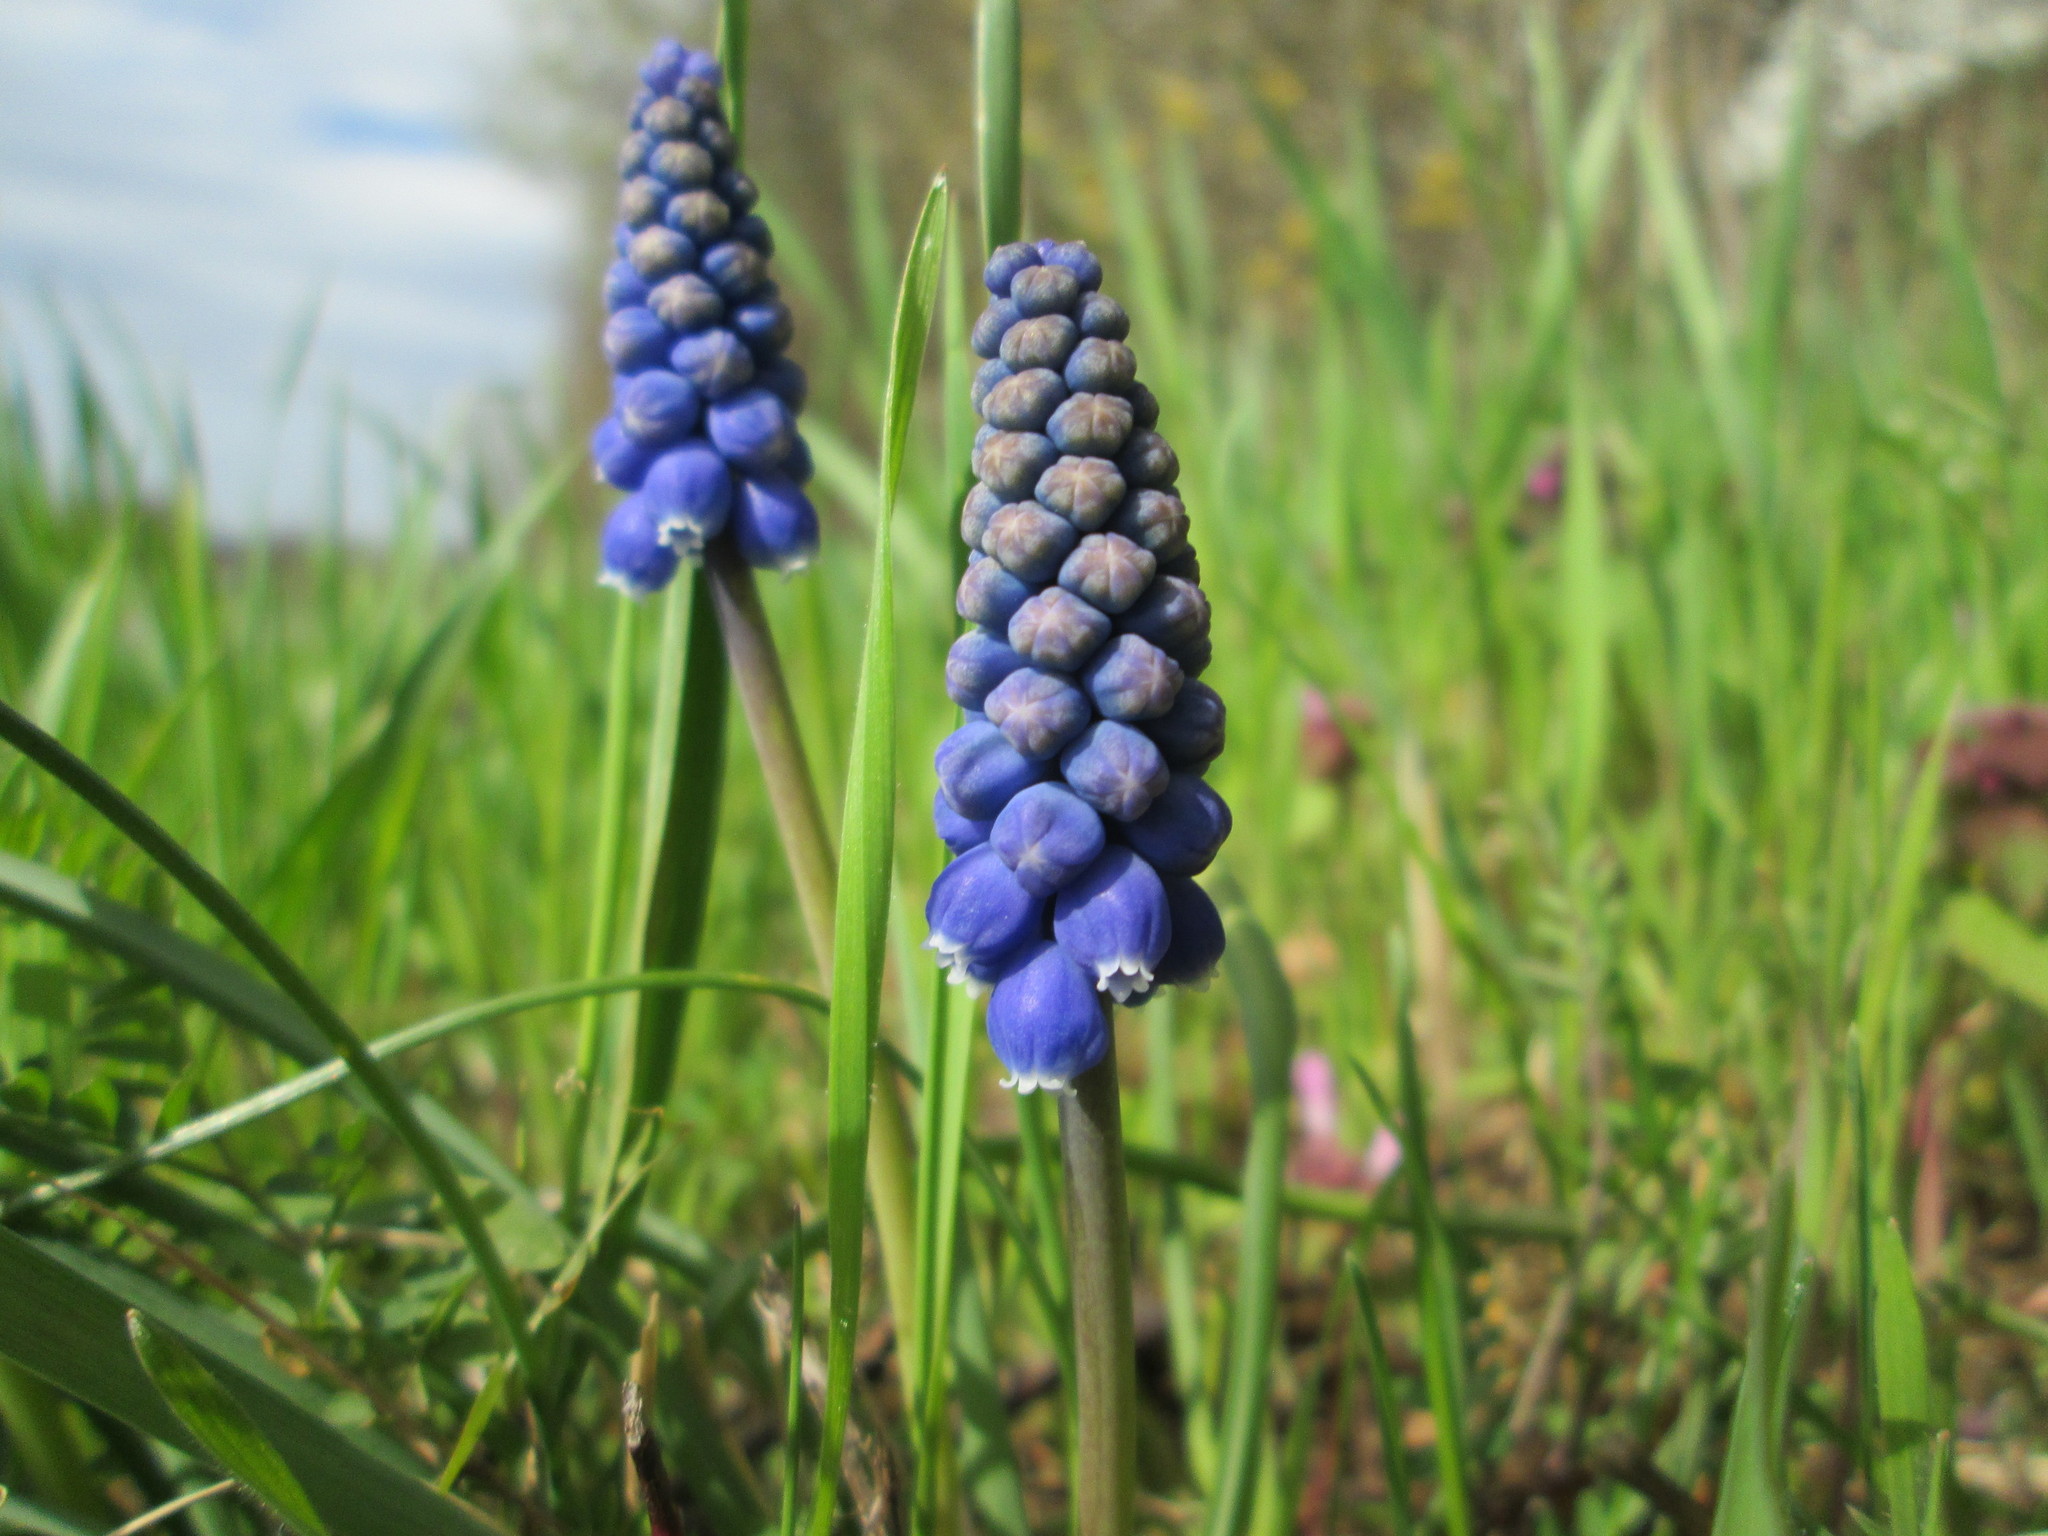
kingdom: Plantae
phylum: Tracheophyta
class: Liliopsida
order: Asparagales
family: Asparagaceae
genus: Muscari
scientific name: Muscari armeniacum
